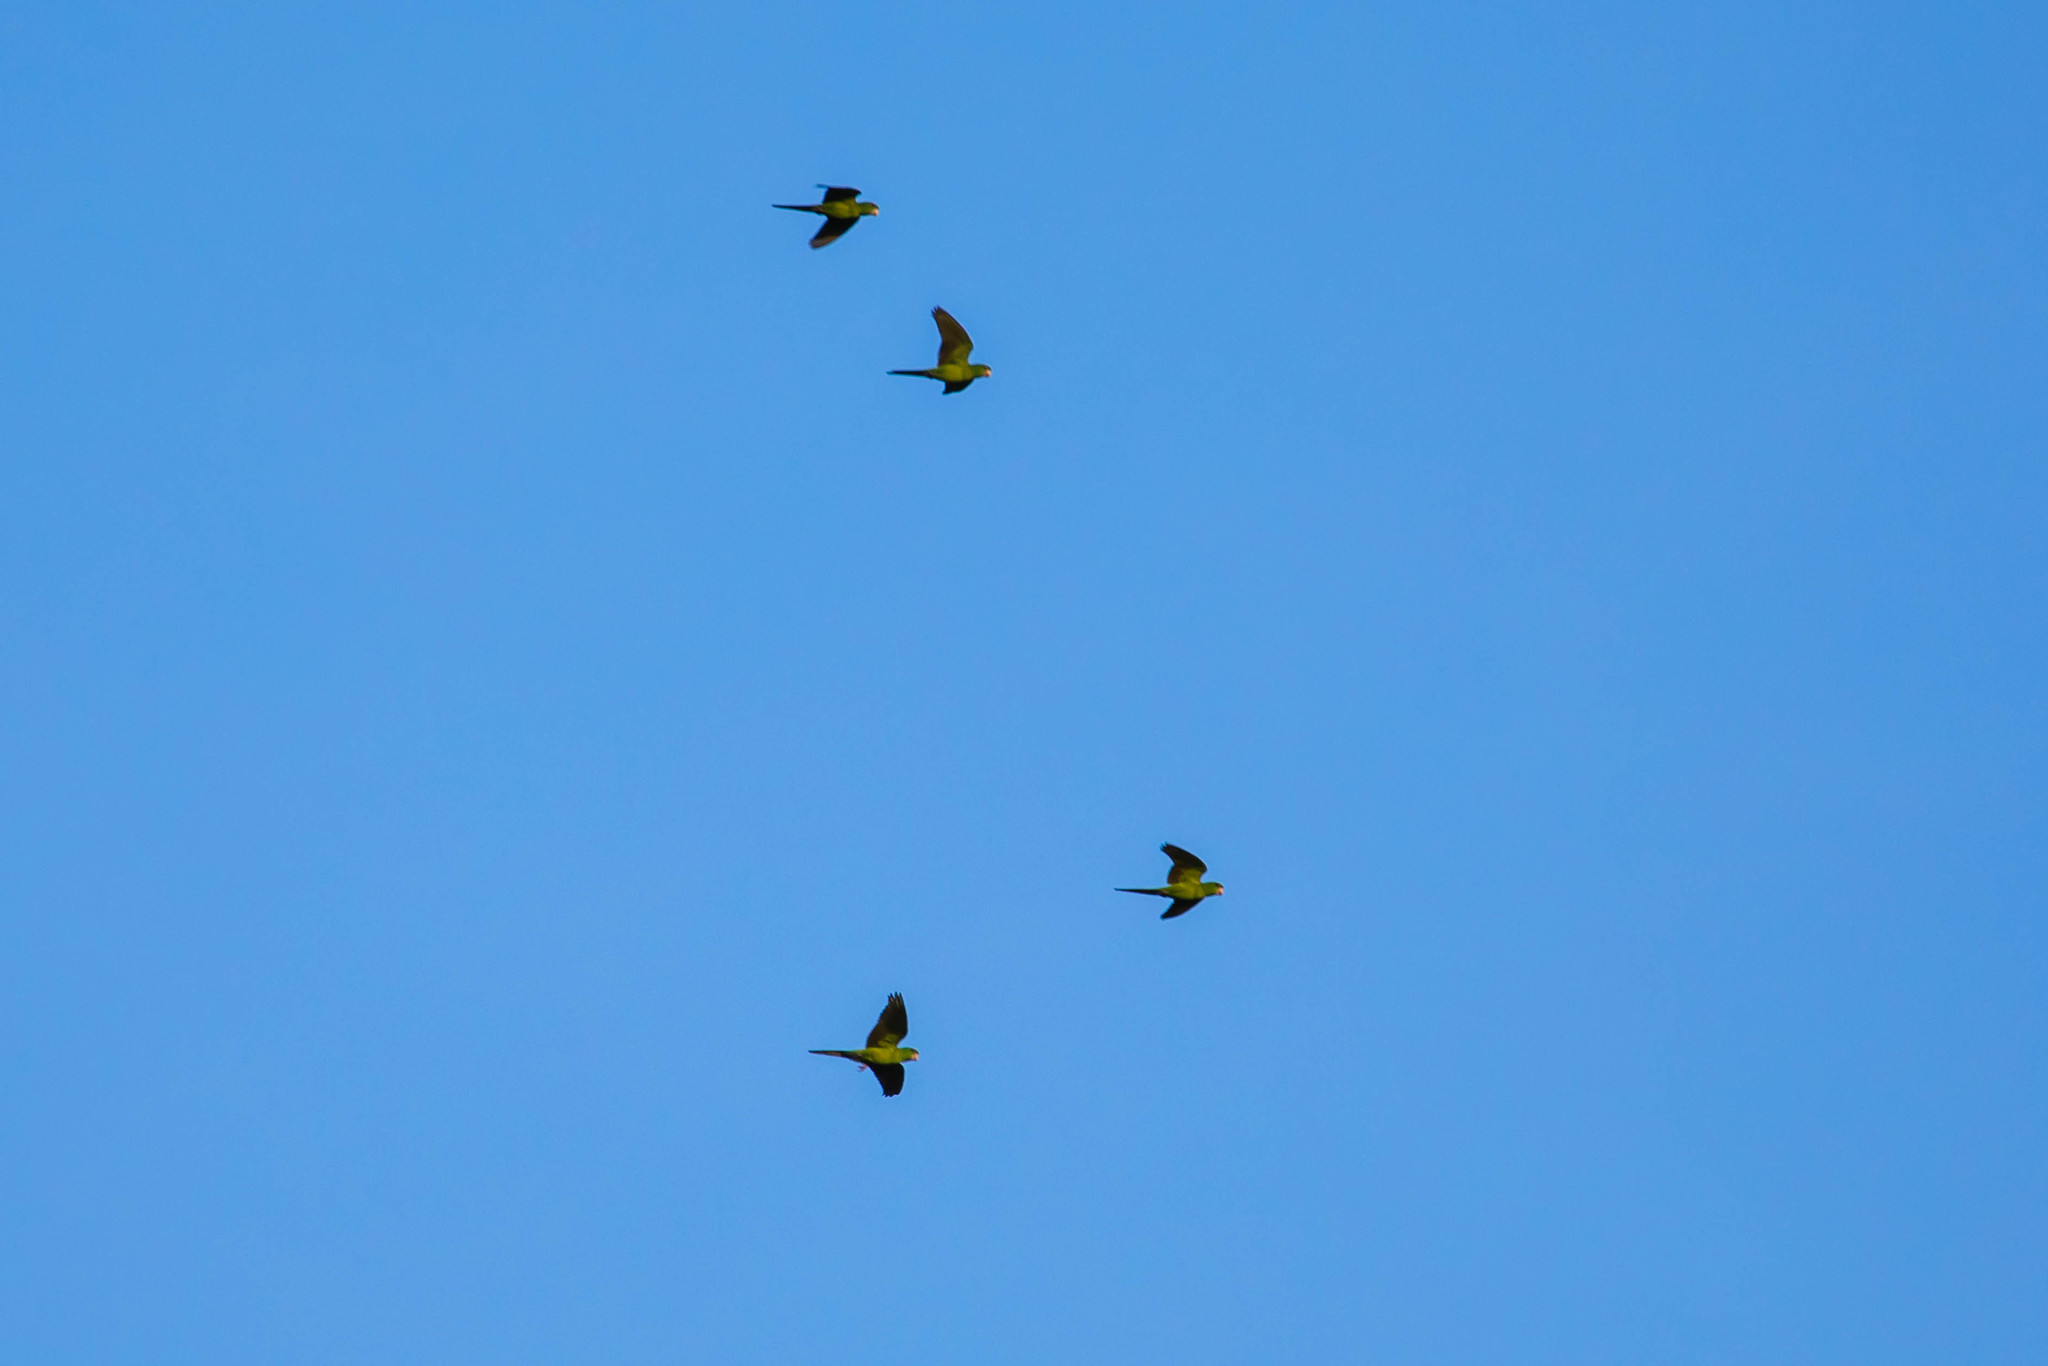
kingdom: Animalia
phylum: Chordata
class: Aves
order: Psittaciformes
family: Psittacidae
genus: Aratinga
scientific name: Aratinga holochlora
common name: Green parakeet
